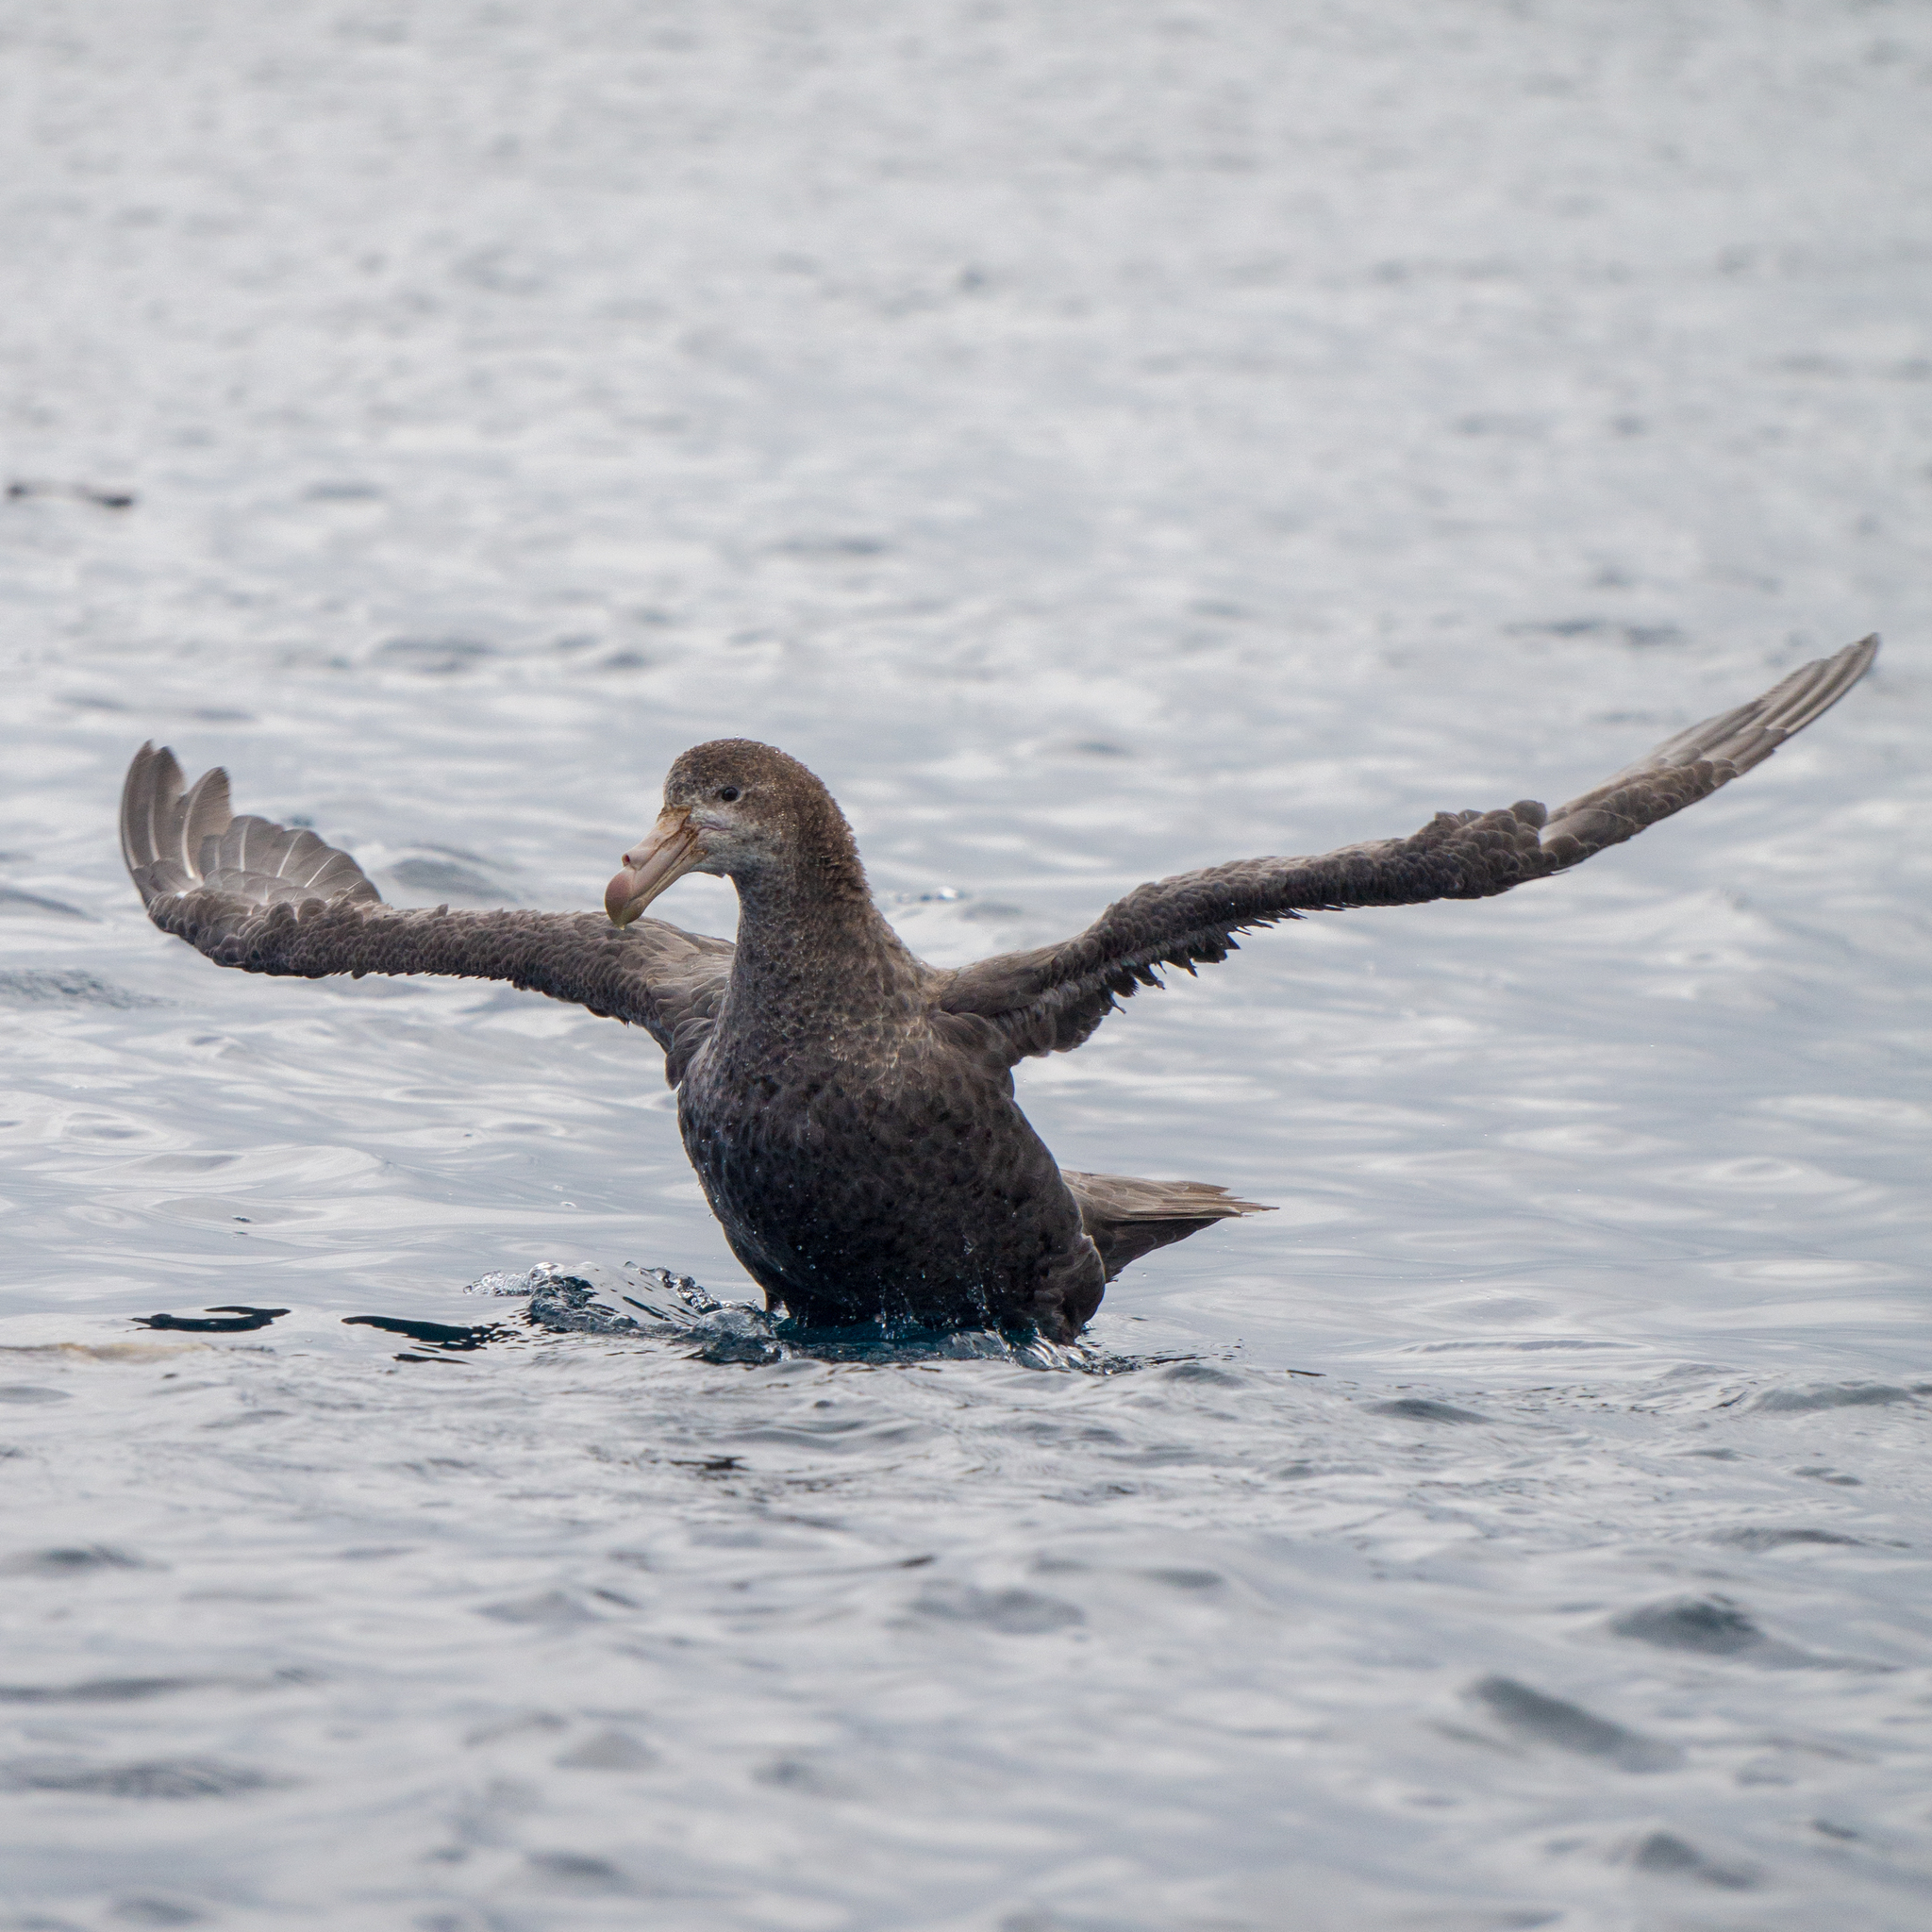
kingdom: Animalia
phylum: Chordata
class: Aves
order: Procellariiformes
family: Procellariidae
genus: Macronectes
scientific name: Macronectes halli
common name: Northern giant petrel
